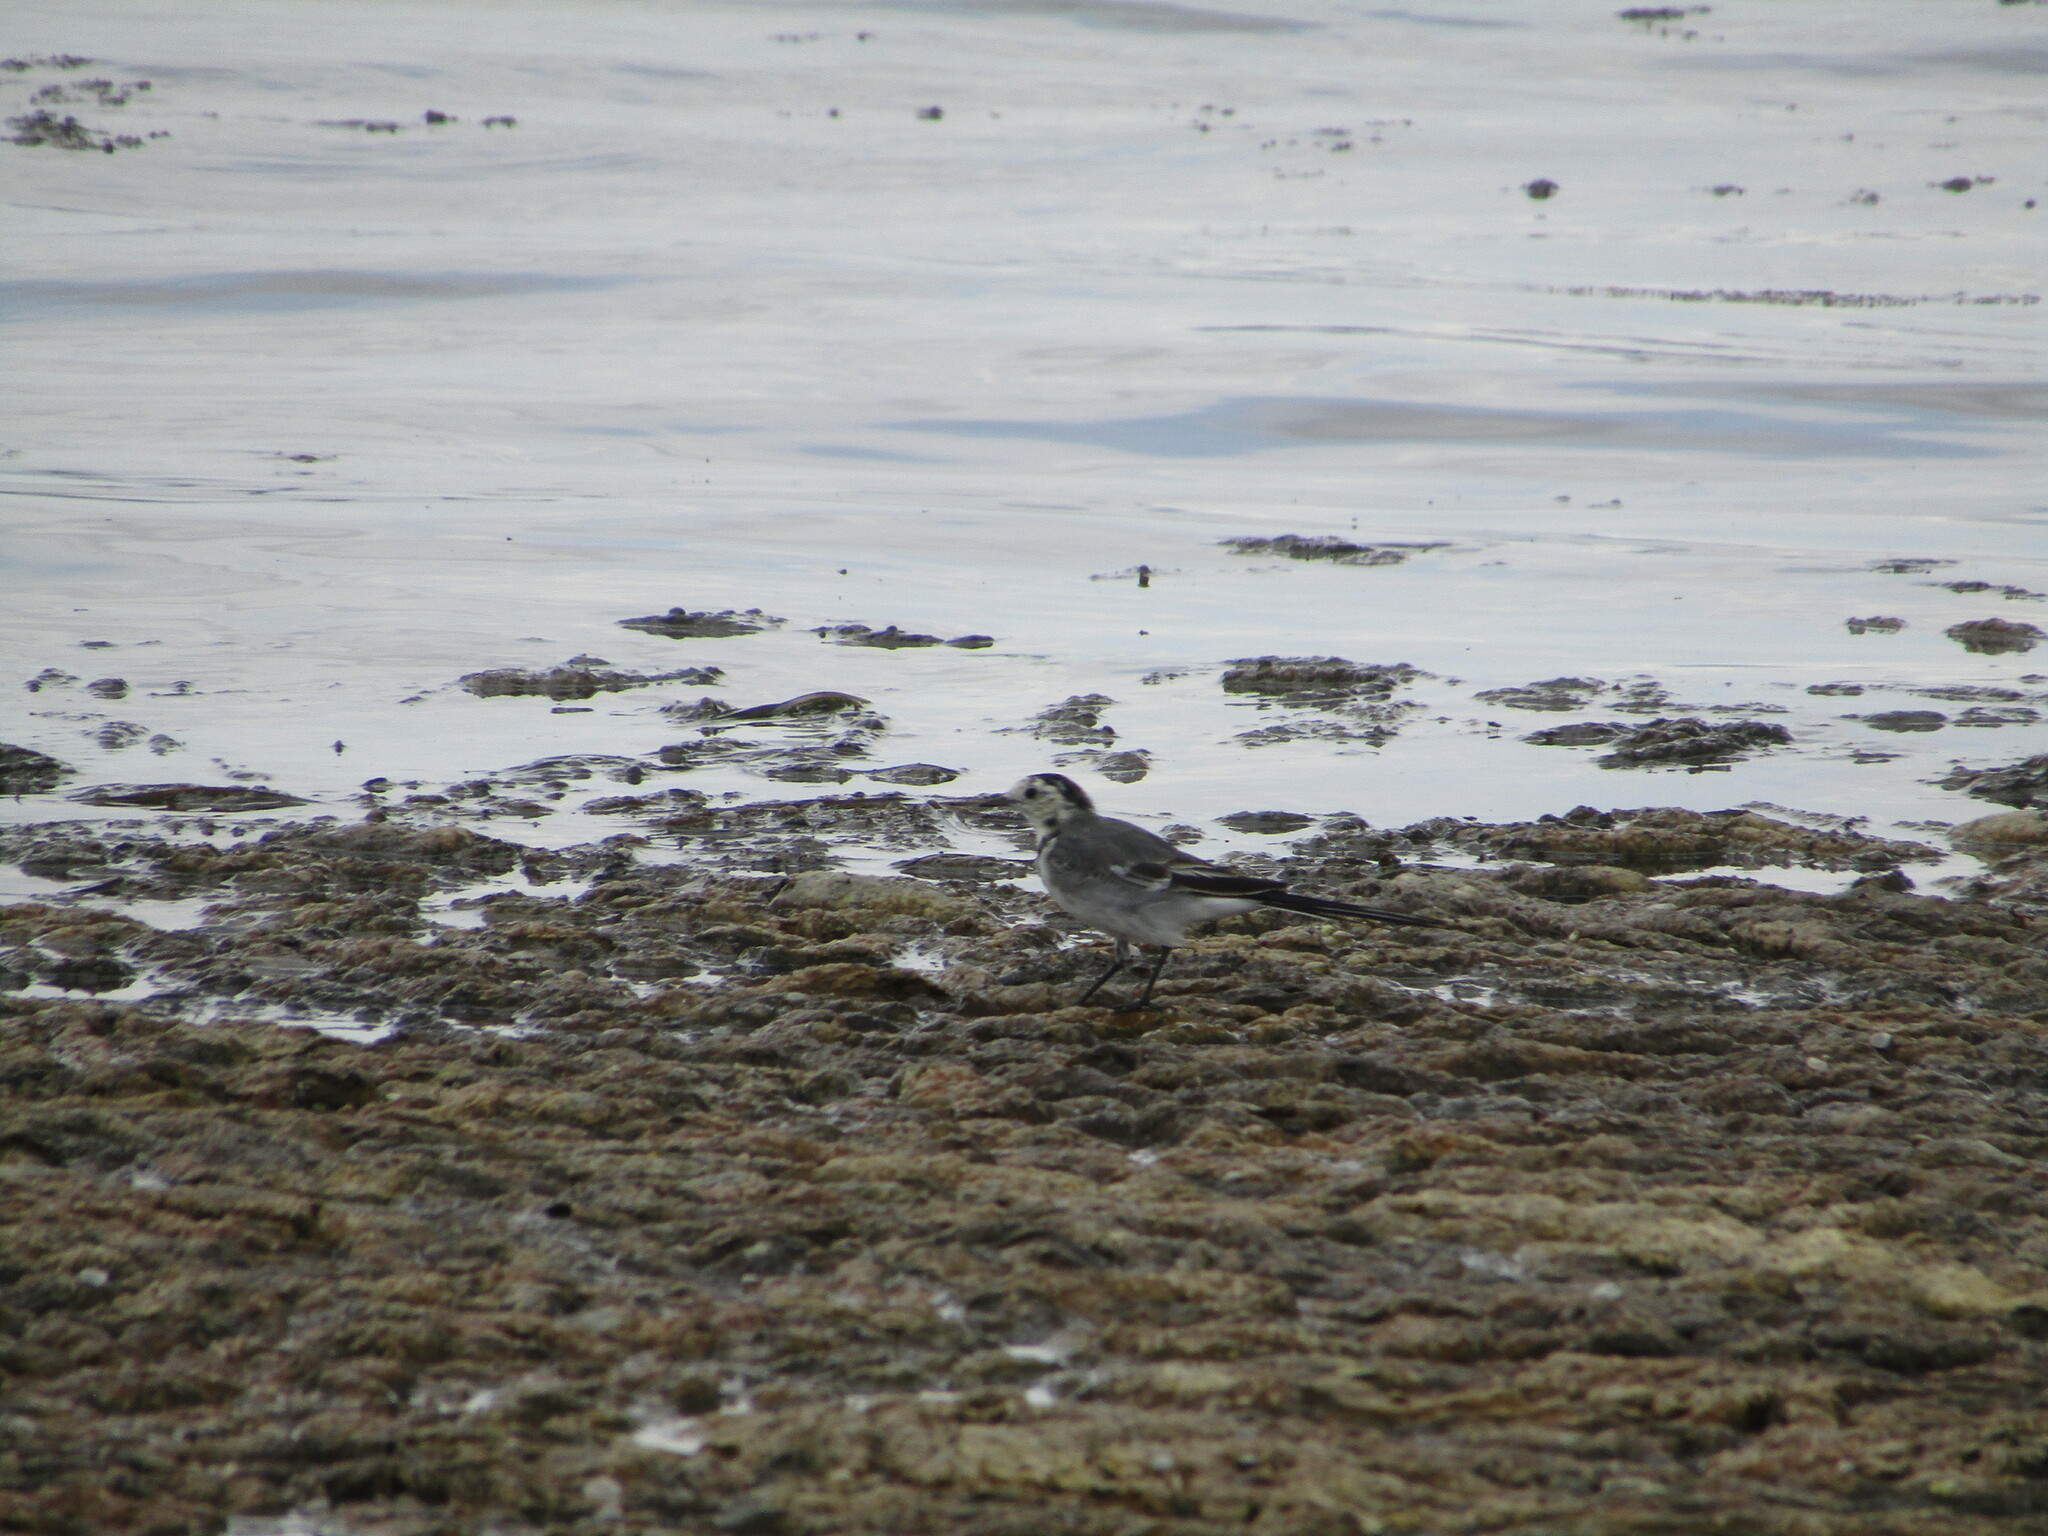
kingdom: Animalia
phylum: Chordata
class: Aves
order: Passeriformes
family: Motacillidae
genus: Motacilla
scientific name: Motacilla alba
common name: White wagtail
